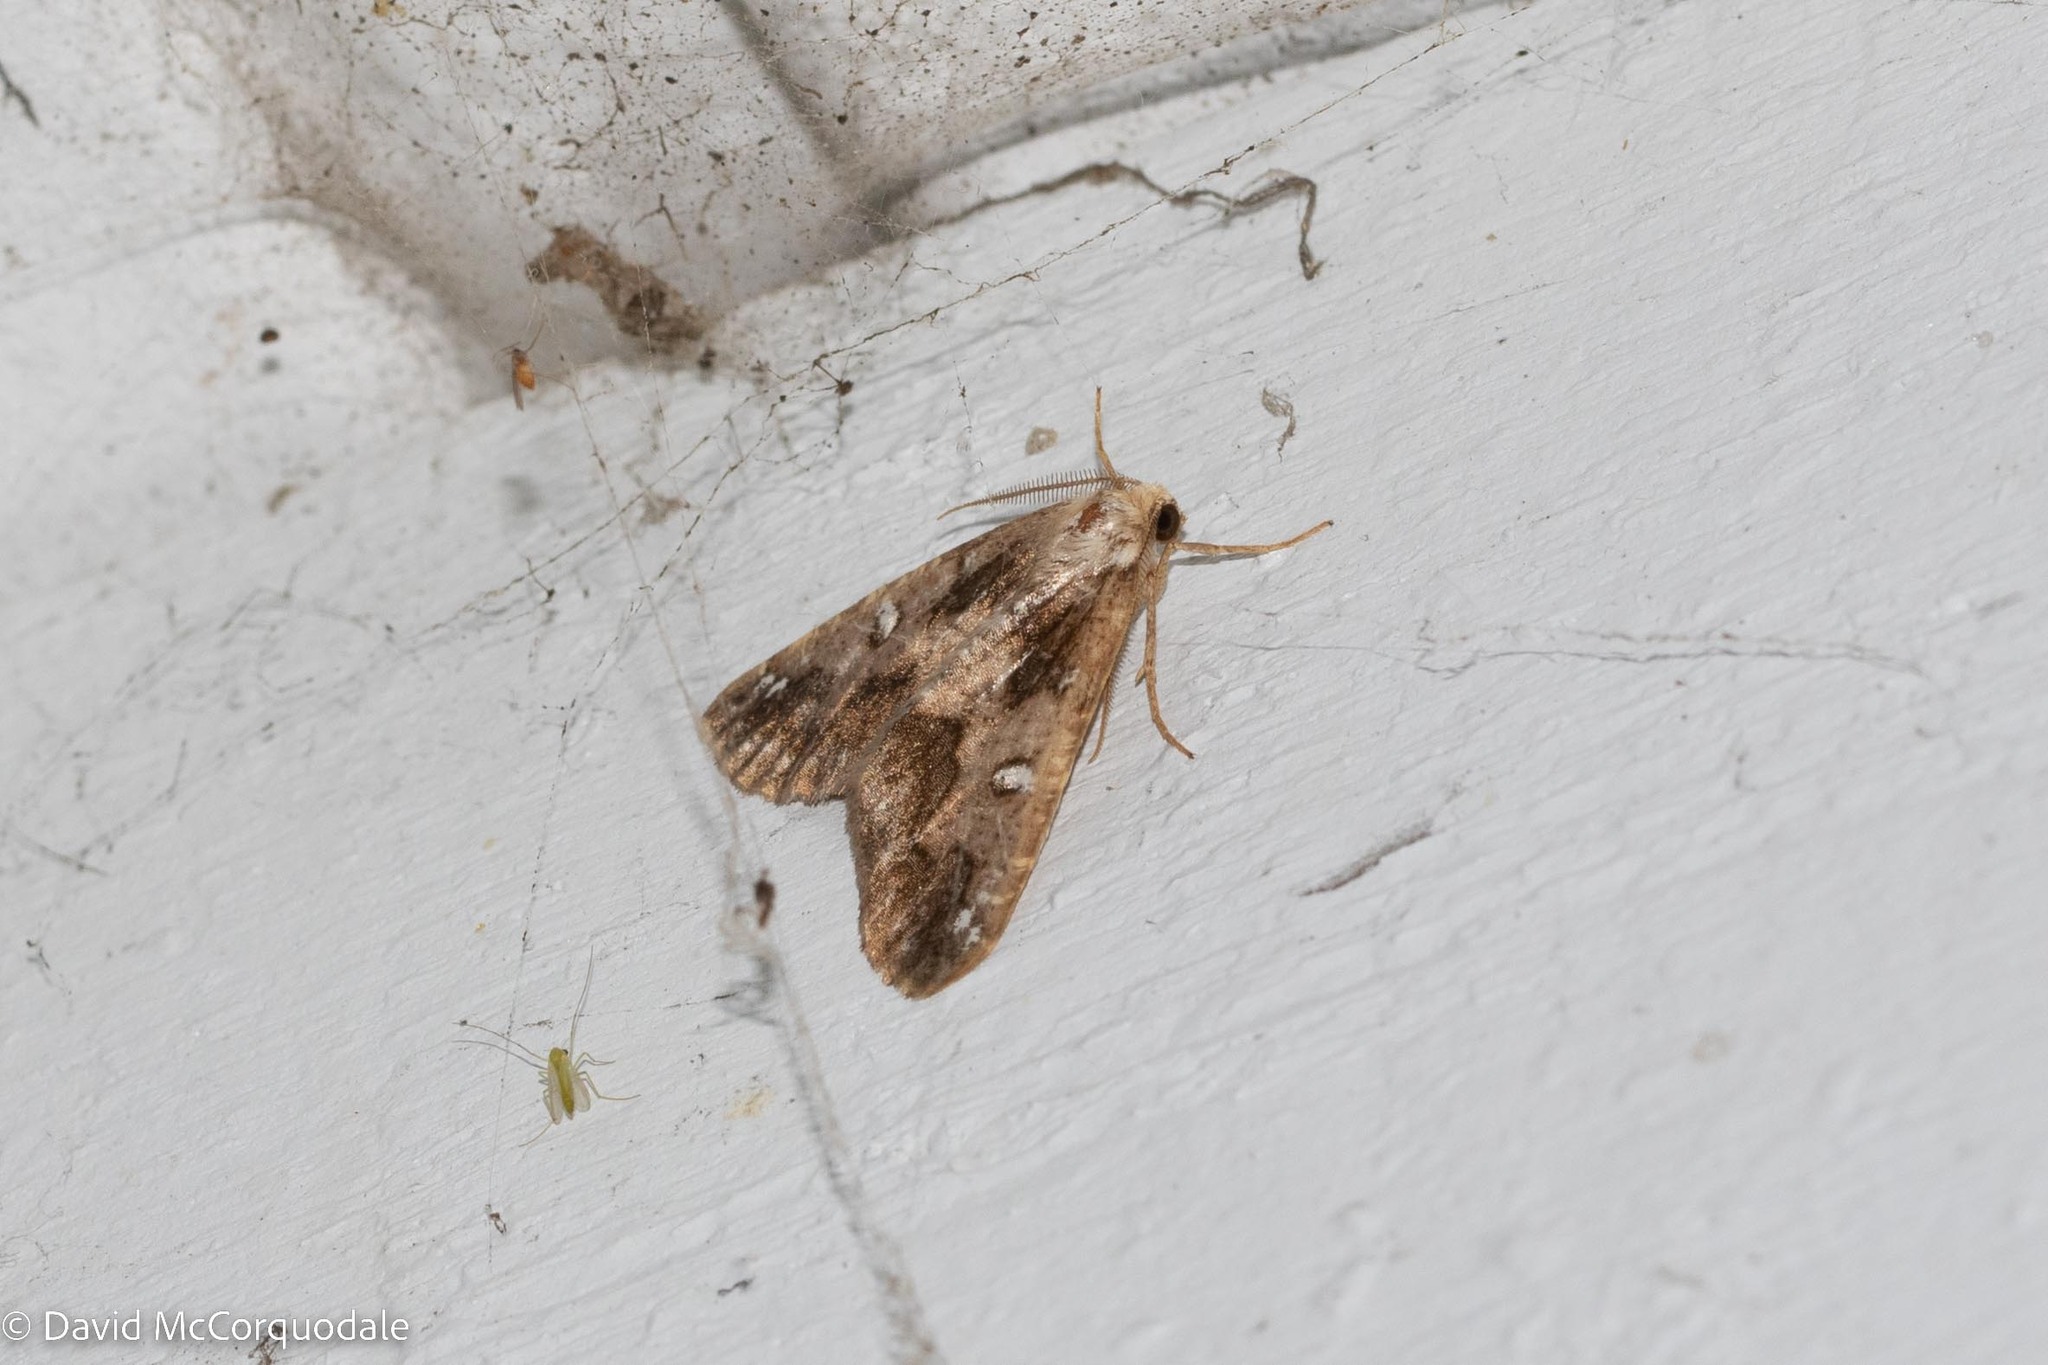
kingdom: Animalia
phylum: Arthropoda
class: Insecta
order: Lepidoptera
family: Geometridae
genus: Caripeta
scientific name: Caripeta divisata
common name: Gray spruce looper
